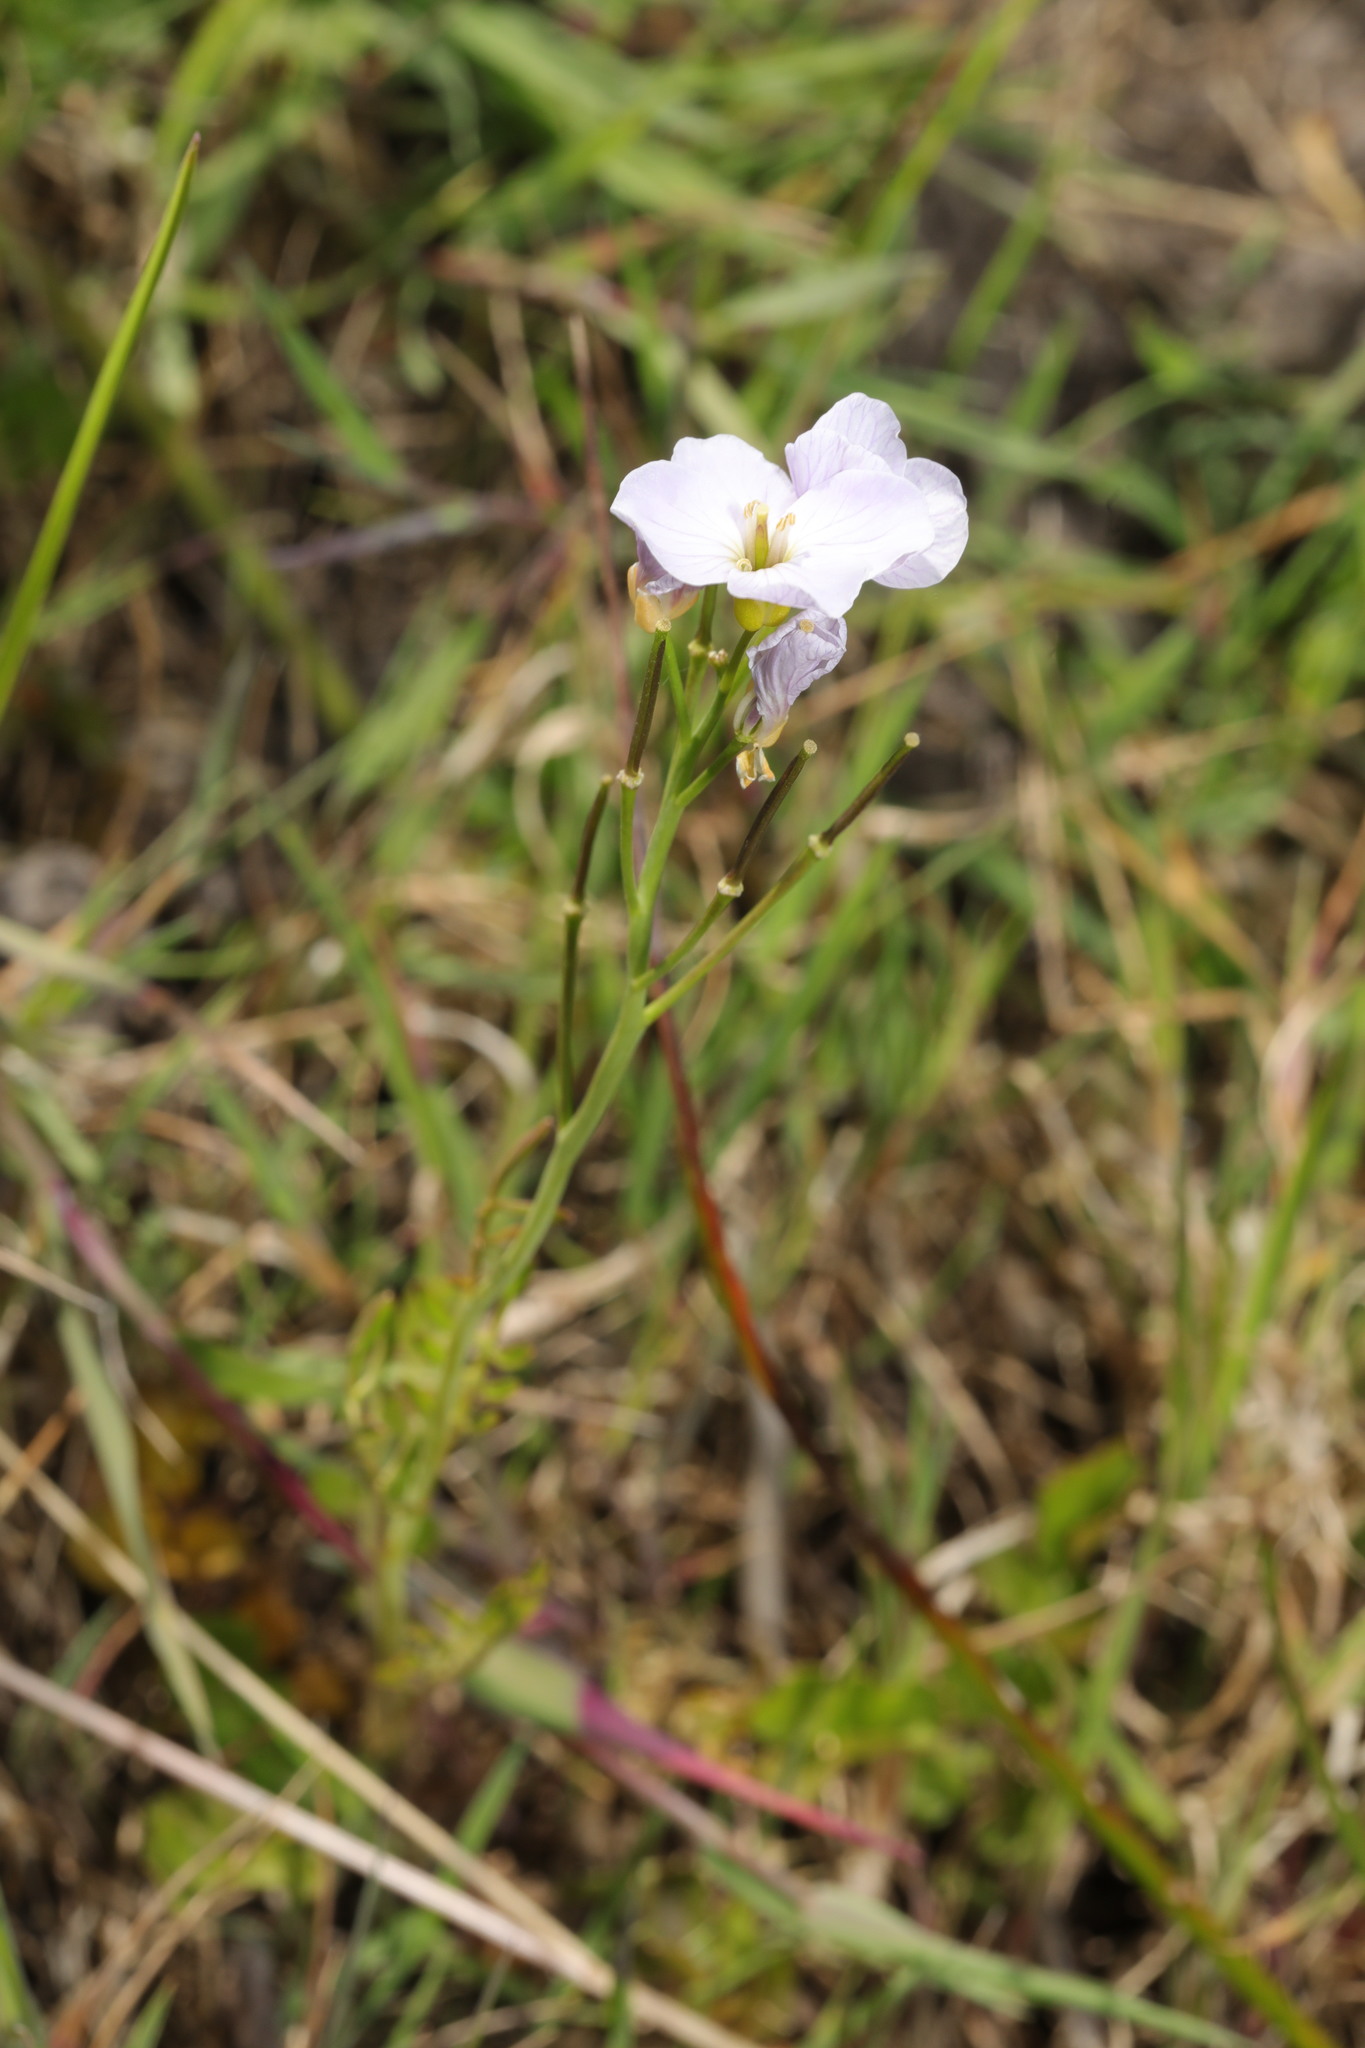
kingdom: Plantae
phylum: Tracheophyta
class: Magnoliopsida
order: Brassicales
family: Brassicaceae
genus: Cardamine
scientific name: Cardamine pratensis
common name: Cuckoo flower
